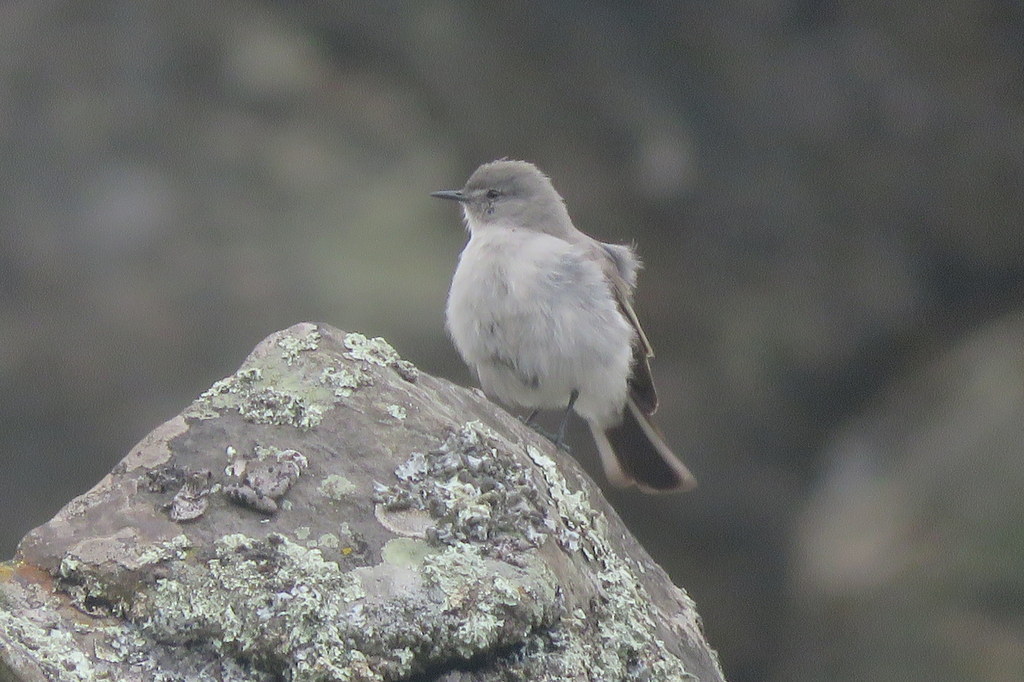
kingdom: Animalia
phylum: Chordata
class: Aves
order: Passeriformes
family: Tyrannidae
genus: Muscisaxicola
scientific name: Muscisaxicola cinereus
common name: Cinereous ground tyrant
